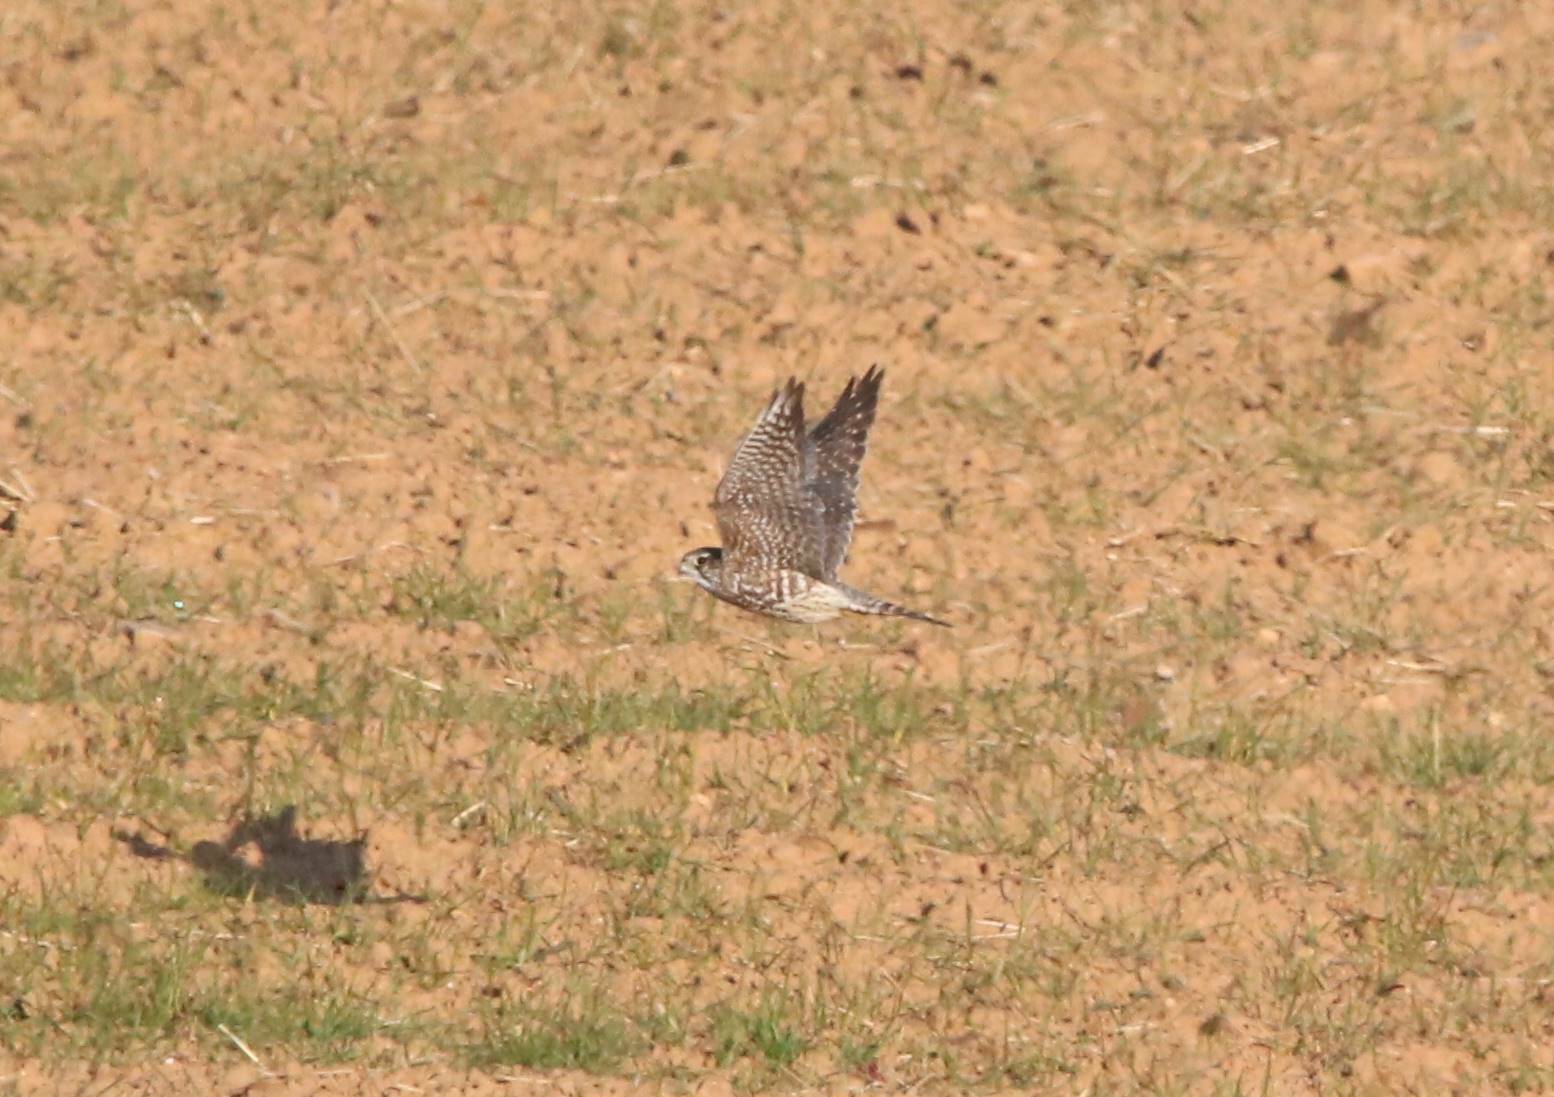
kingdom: Animalia
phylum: Chordata
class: Aves
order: Falconiformes
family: Falconidae
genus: Falco
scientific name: Falco columbarius
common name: Merlin
